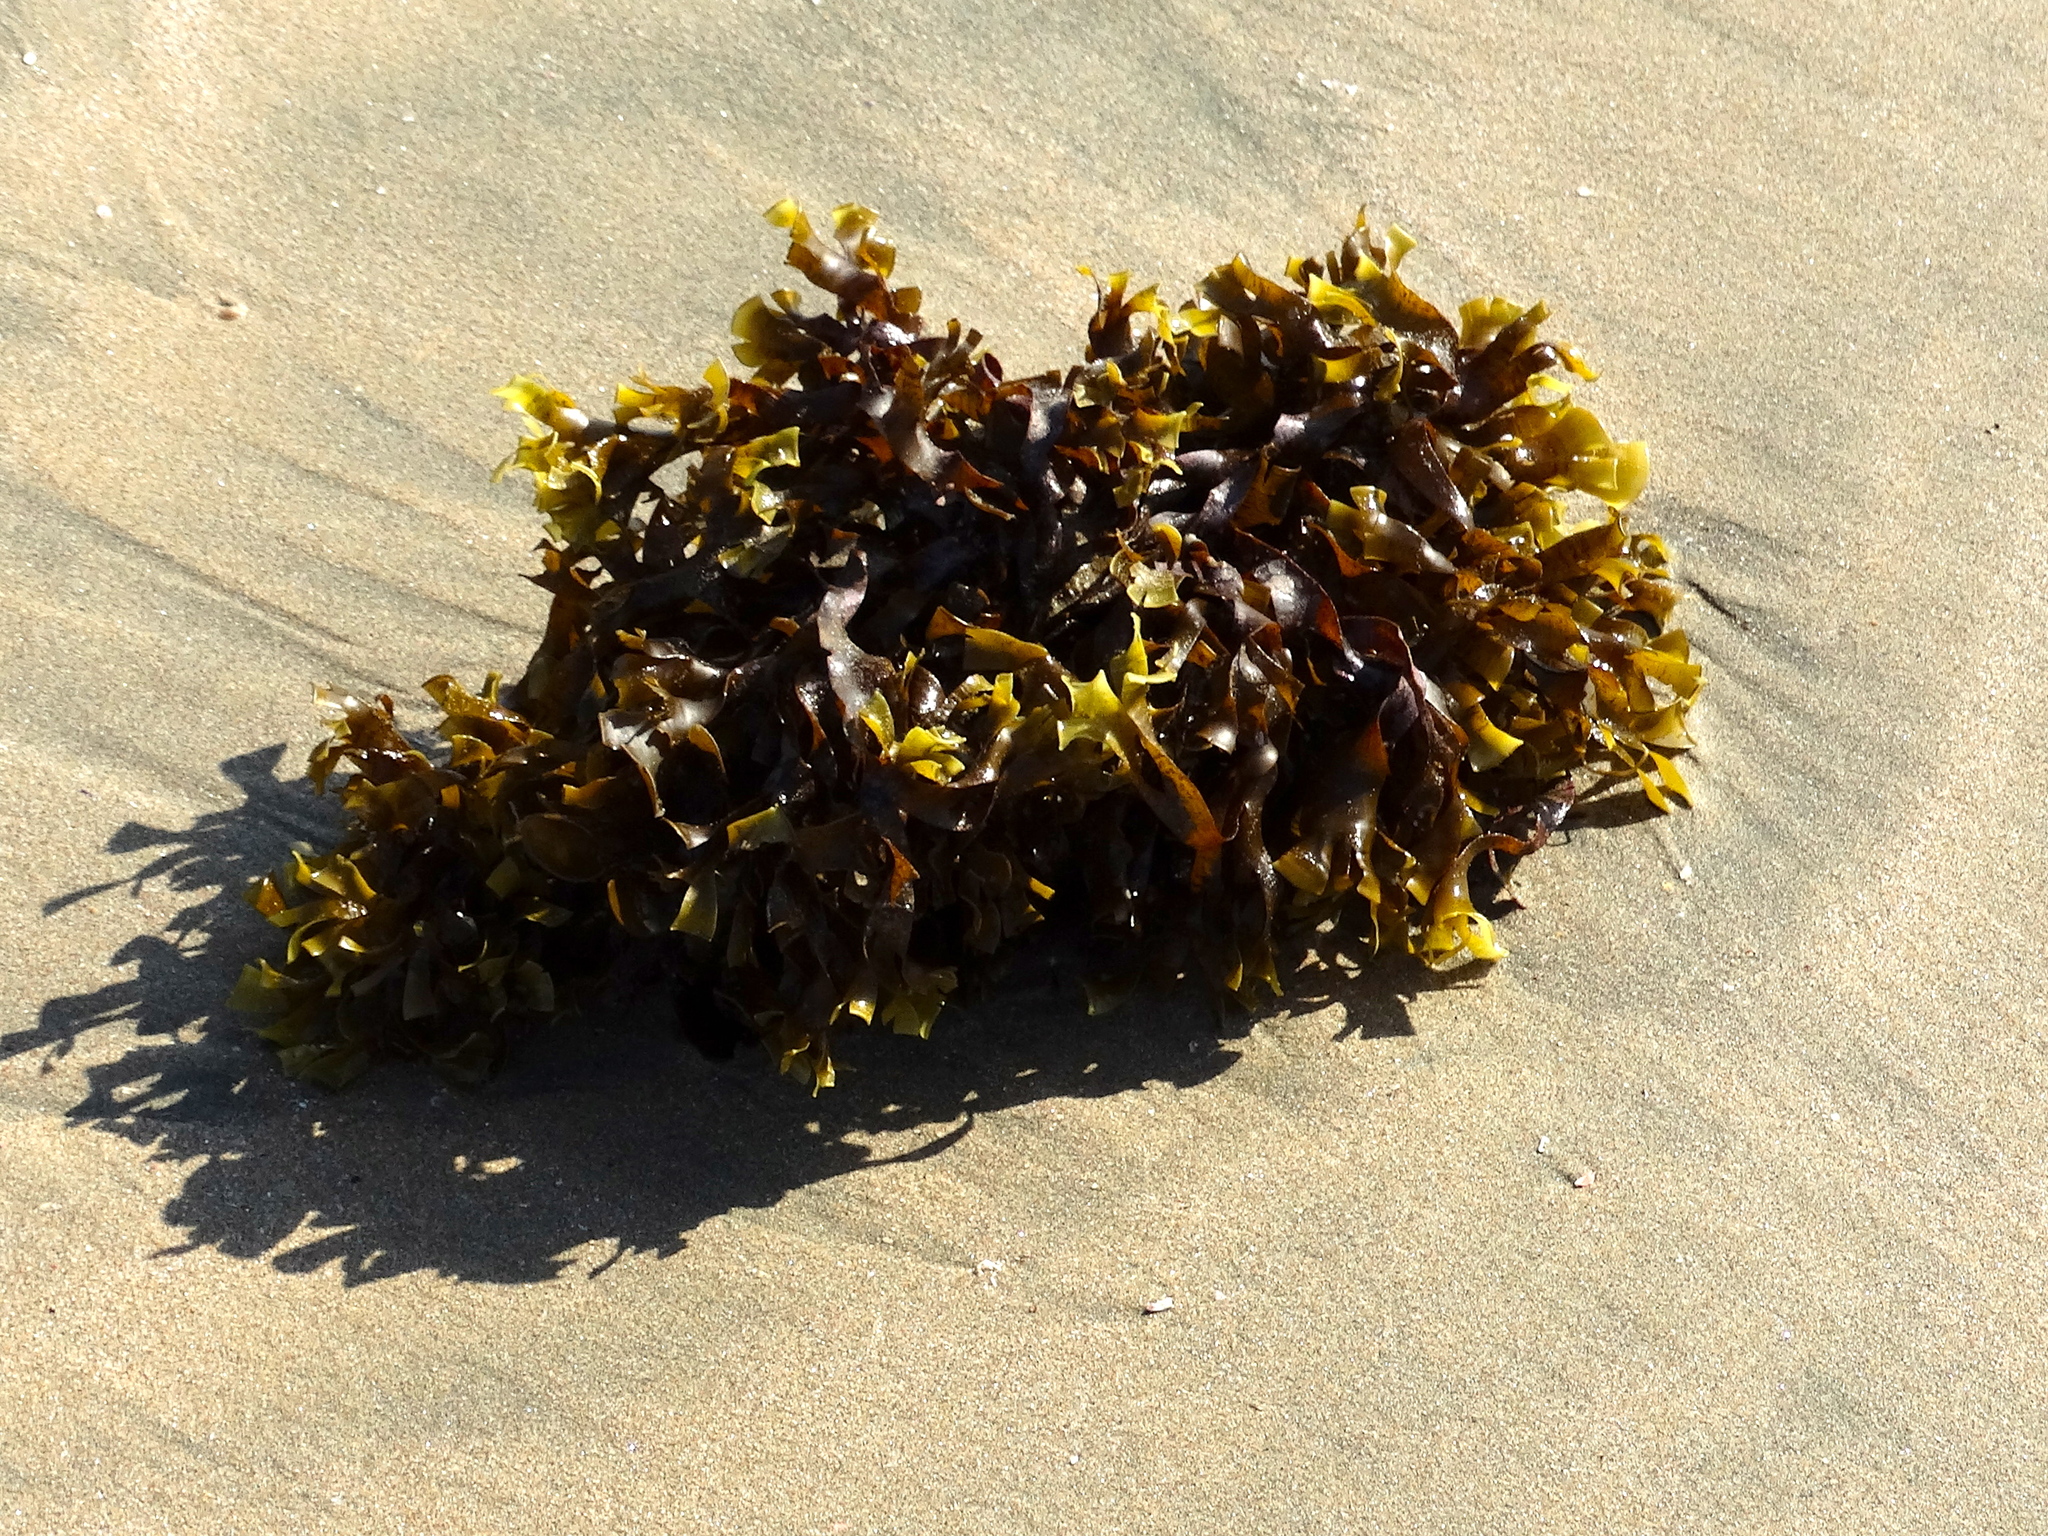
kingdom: Chromista
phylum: Ochrophyta
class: Phaeophyceae
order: Dictyotales
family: Dictyotaceae
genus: Padina
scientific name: Padina
